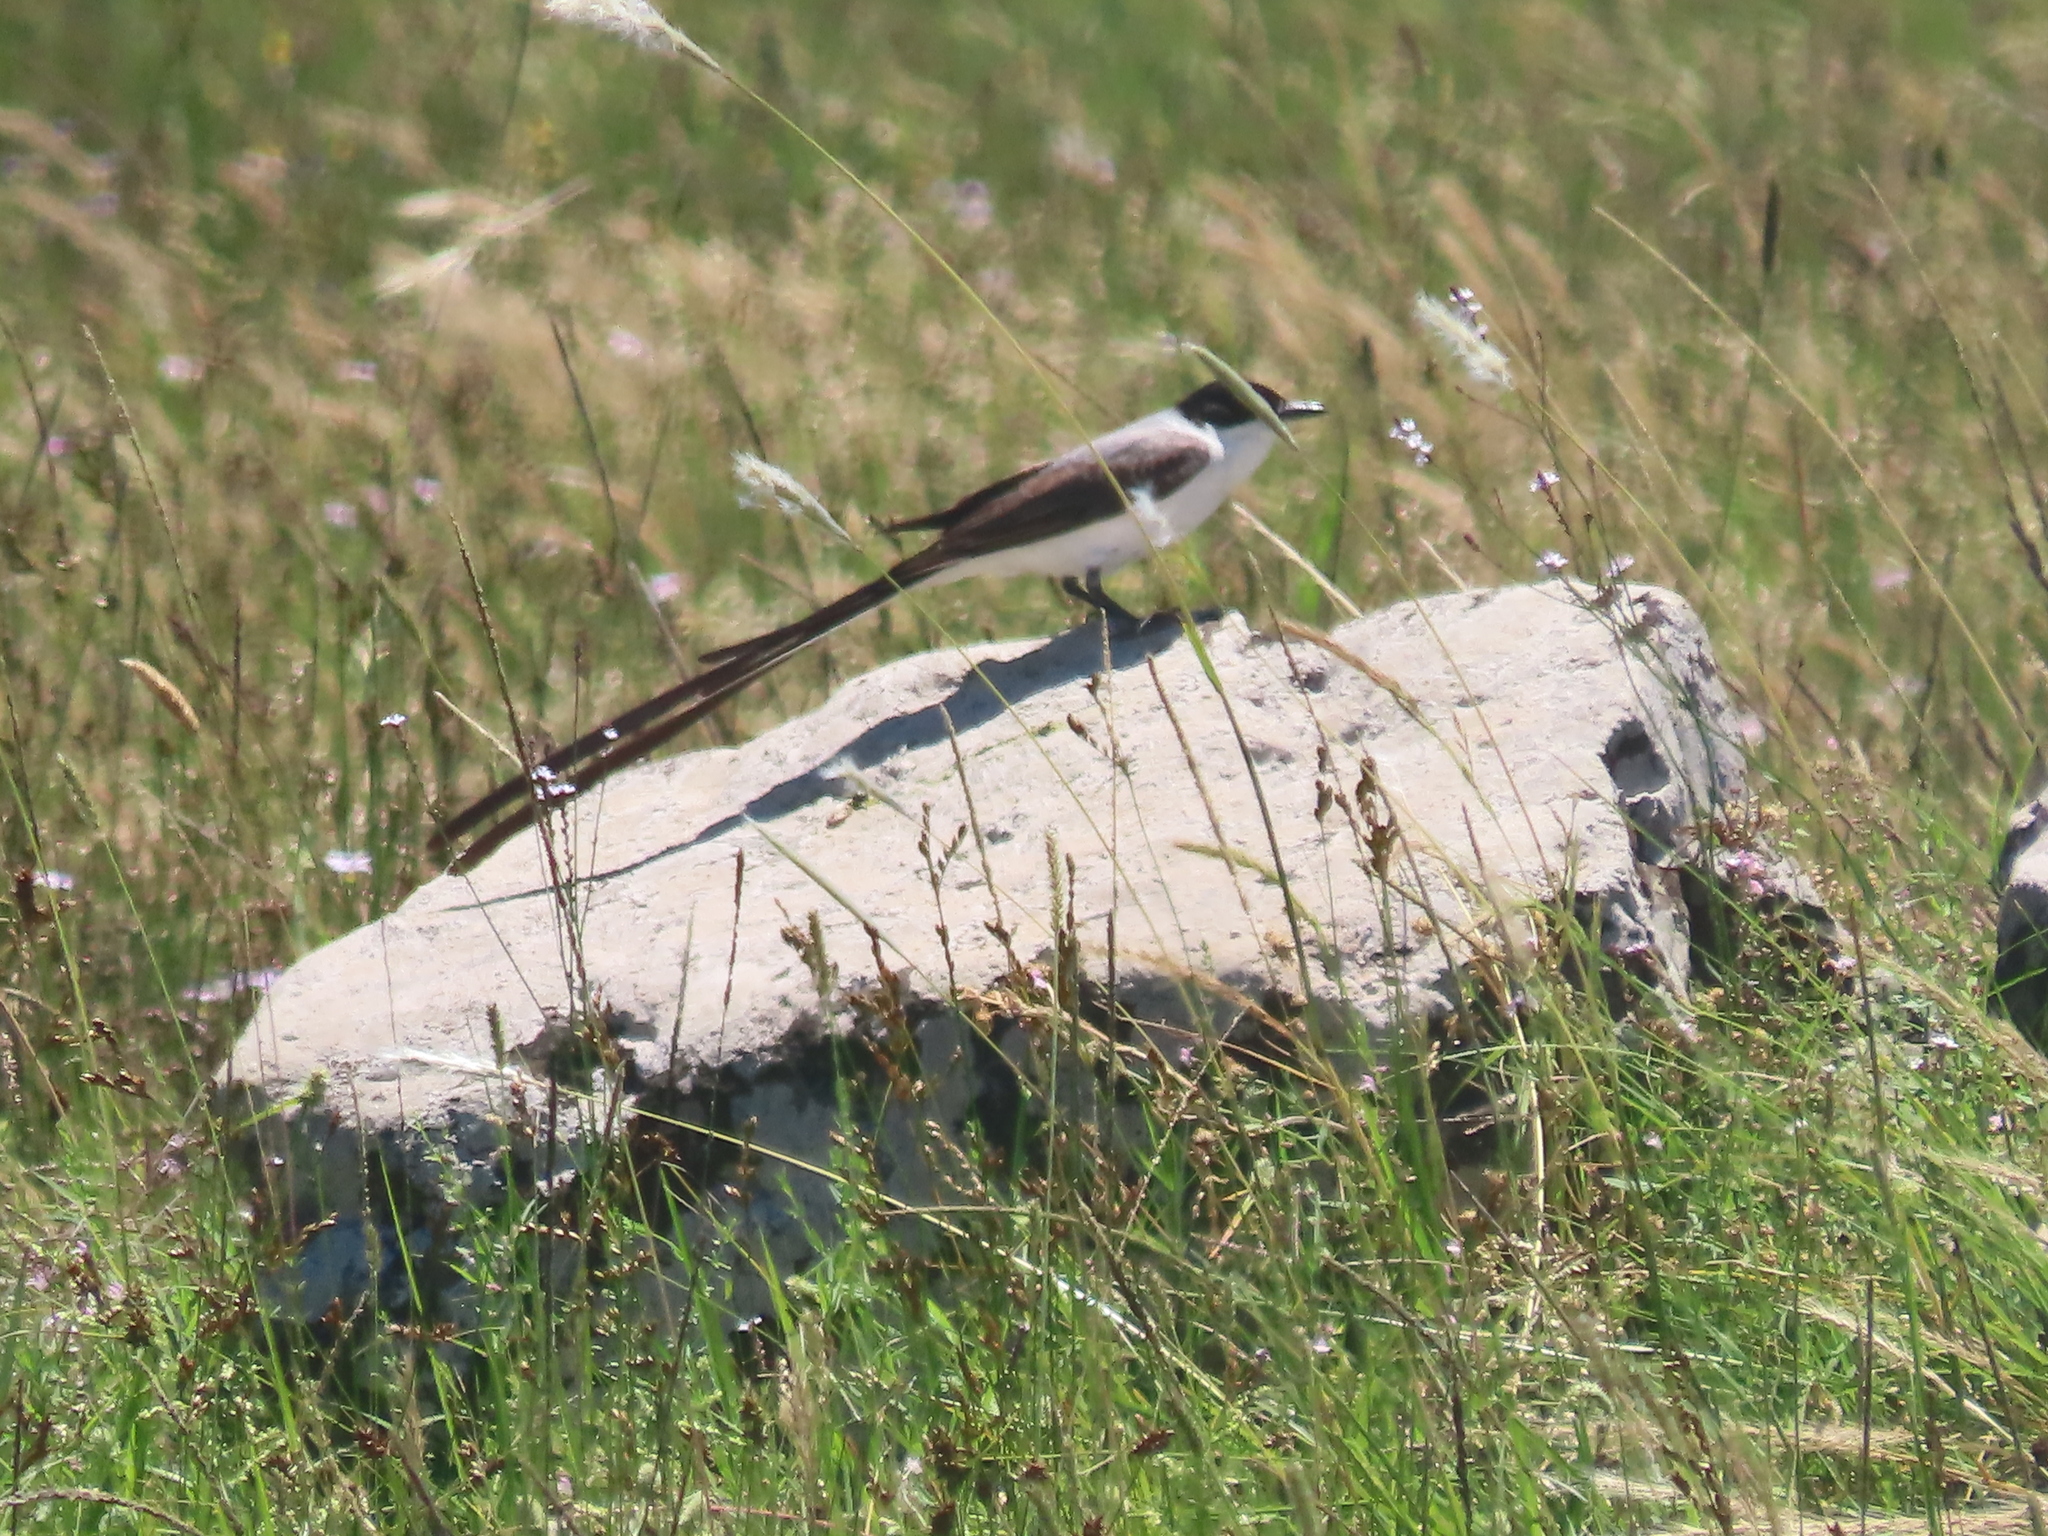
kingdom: Animalia
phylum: Chordata
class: Aves
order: Passeriformes
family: Tyrannidae
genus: Tyrannus
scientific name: Tyrannus savana
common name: Fork-tailed flycatcher
